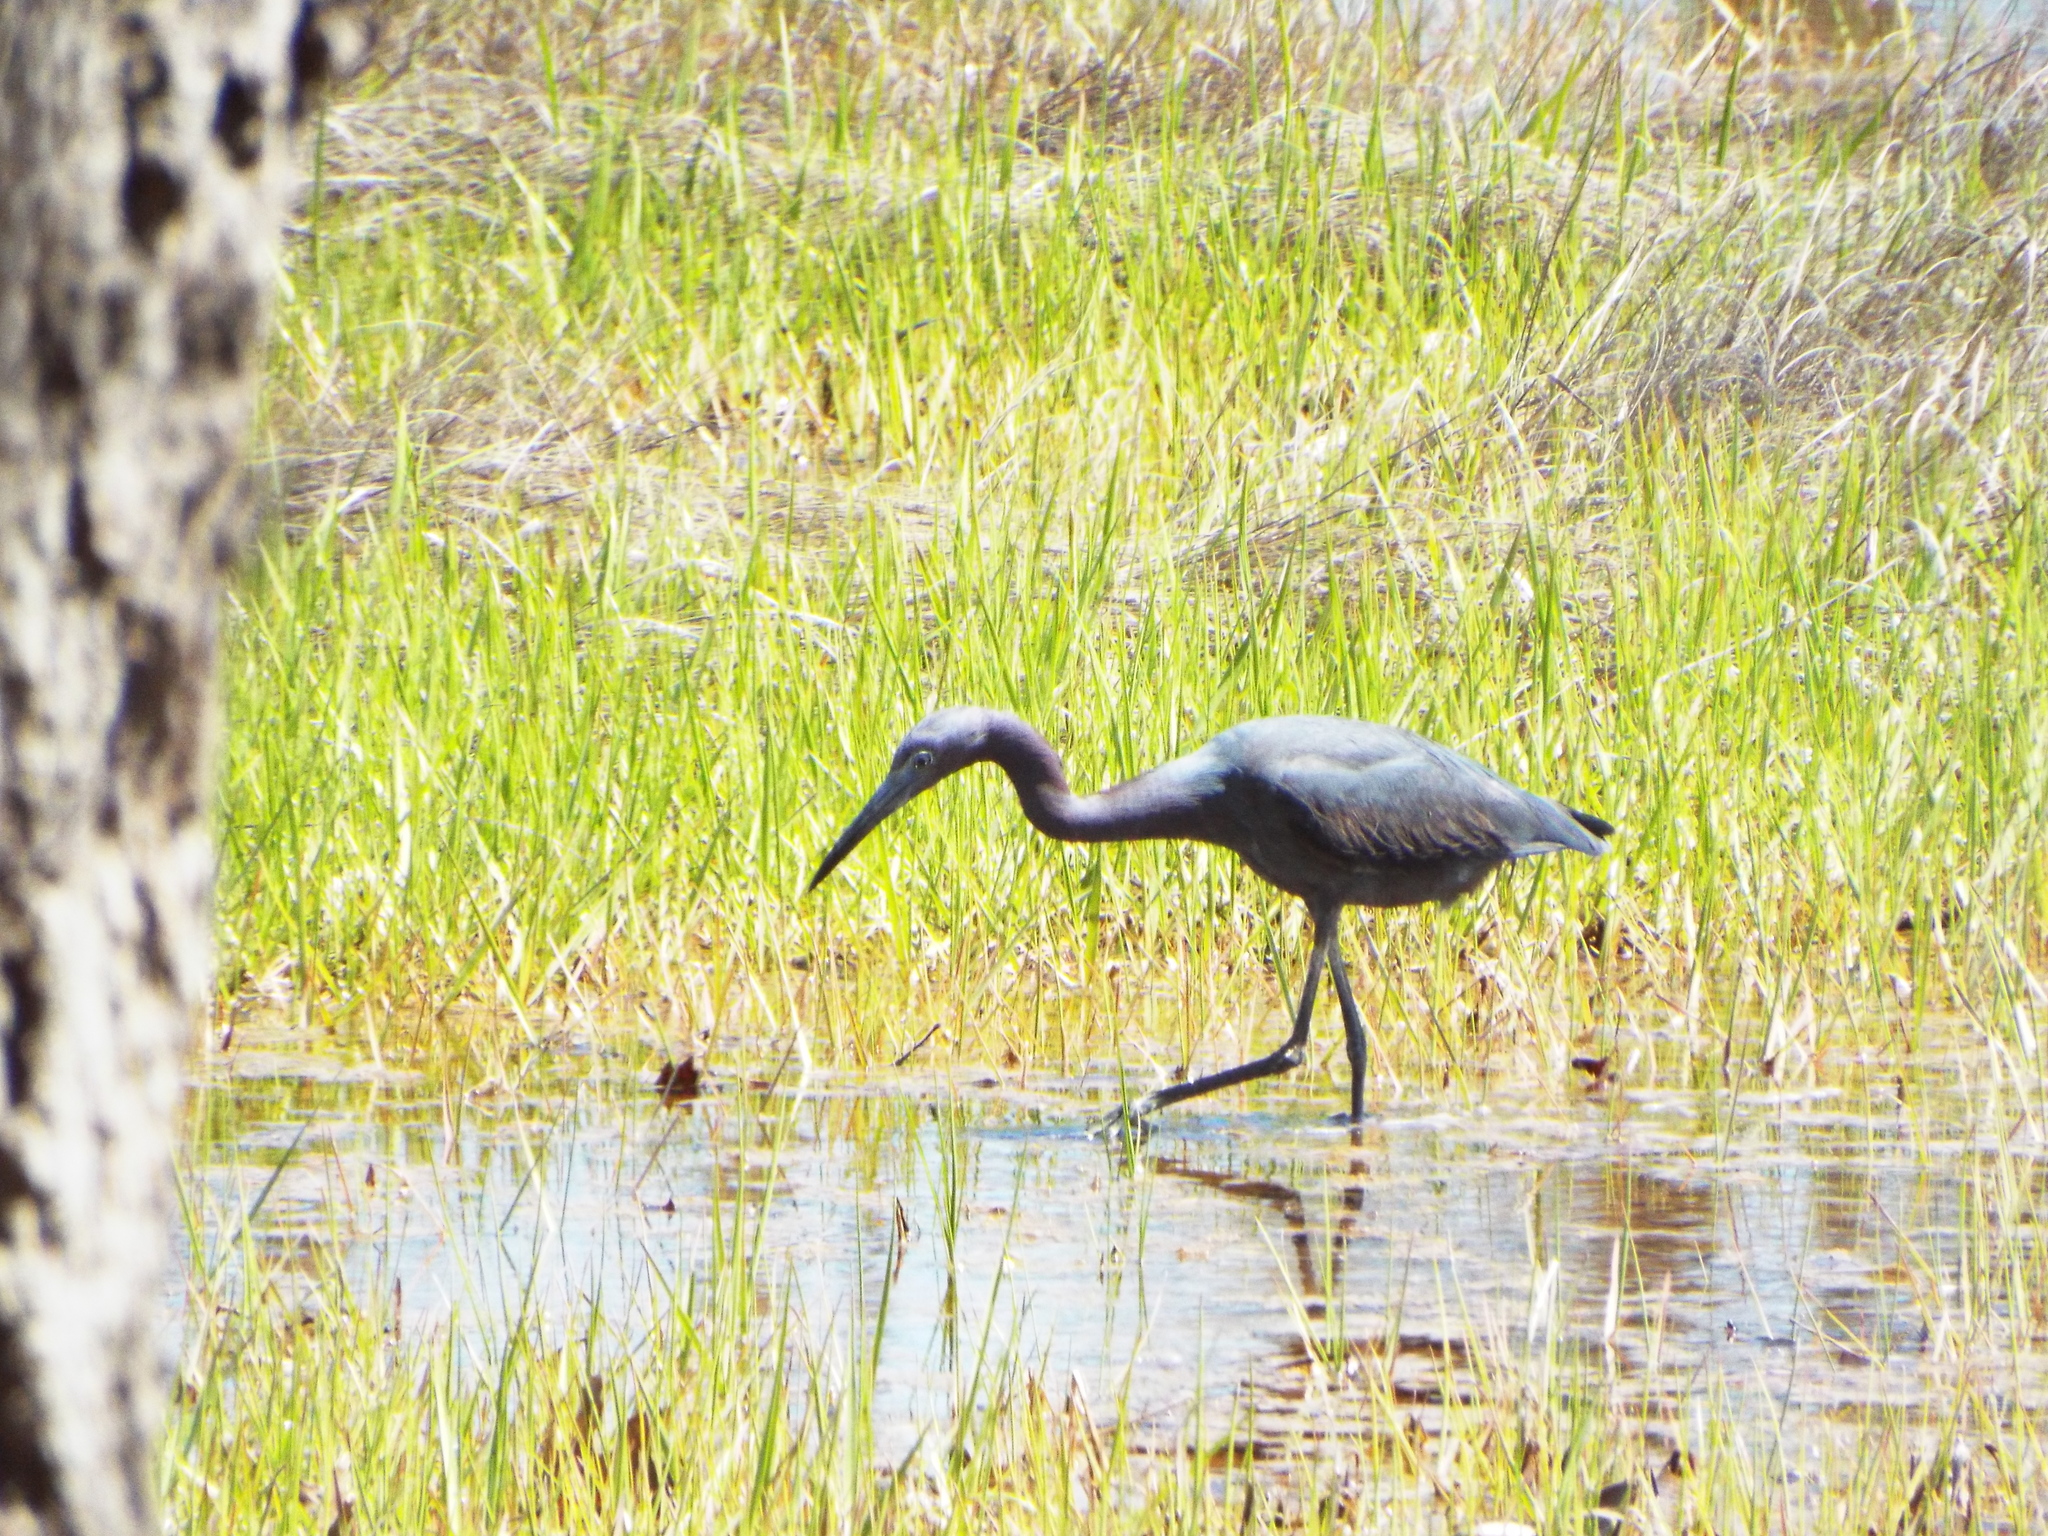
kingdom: Animalia
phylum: Chordata
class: Aves
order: Pelecaniformes
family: Ardeidae
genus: Egretta
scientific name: Egretta caerulea
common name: Little blue heron
